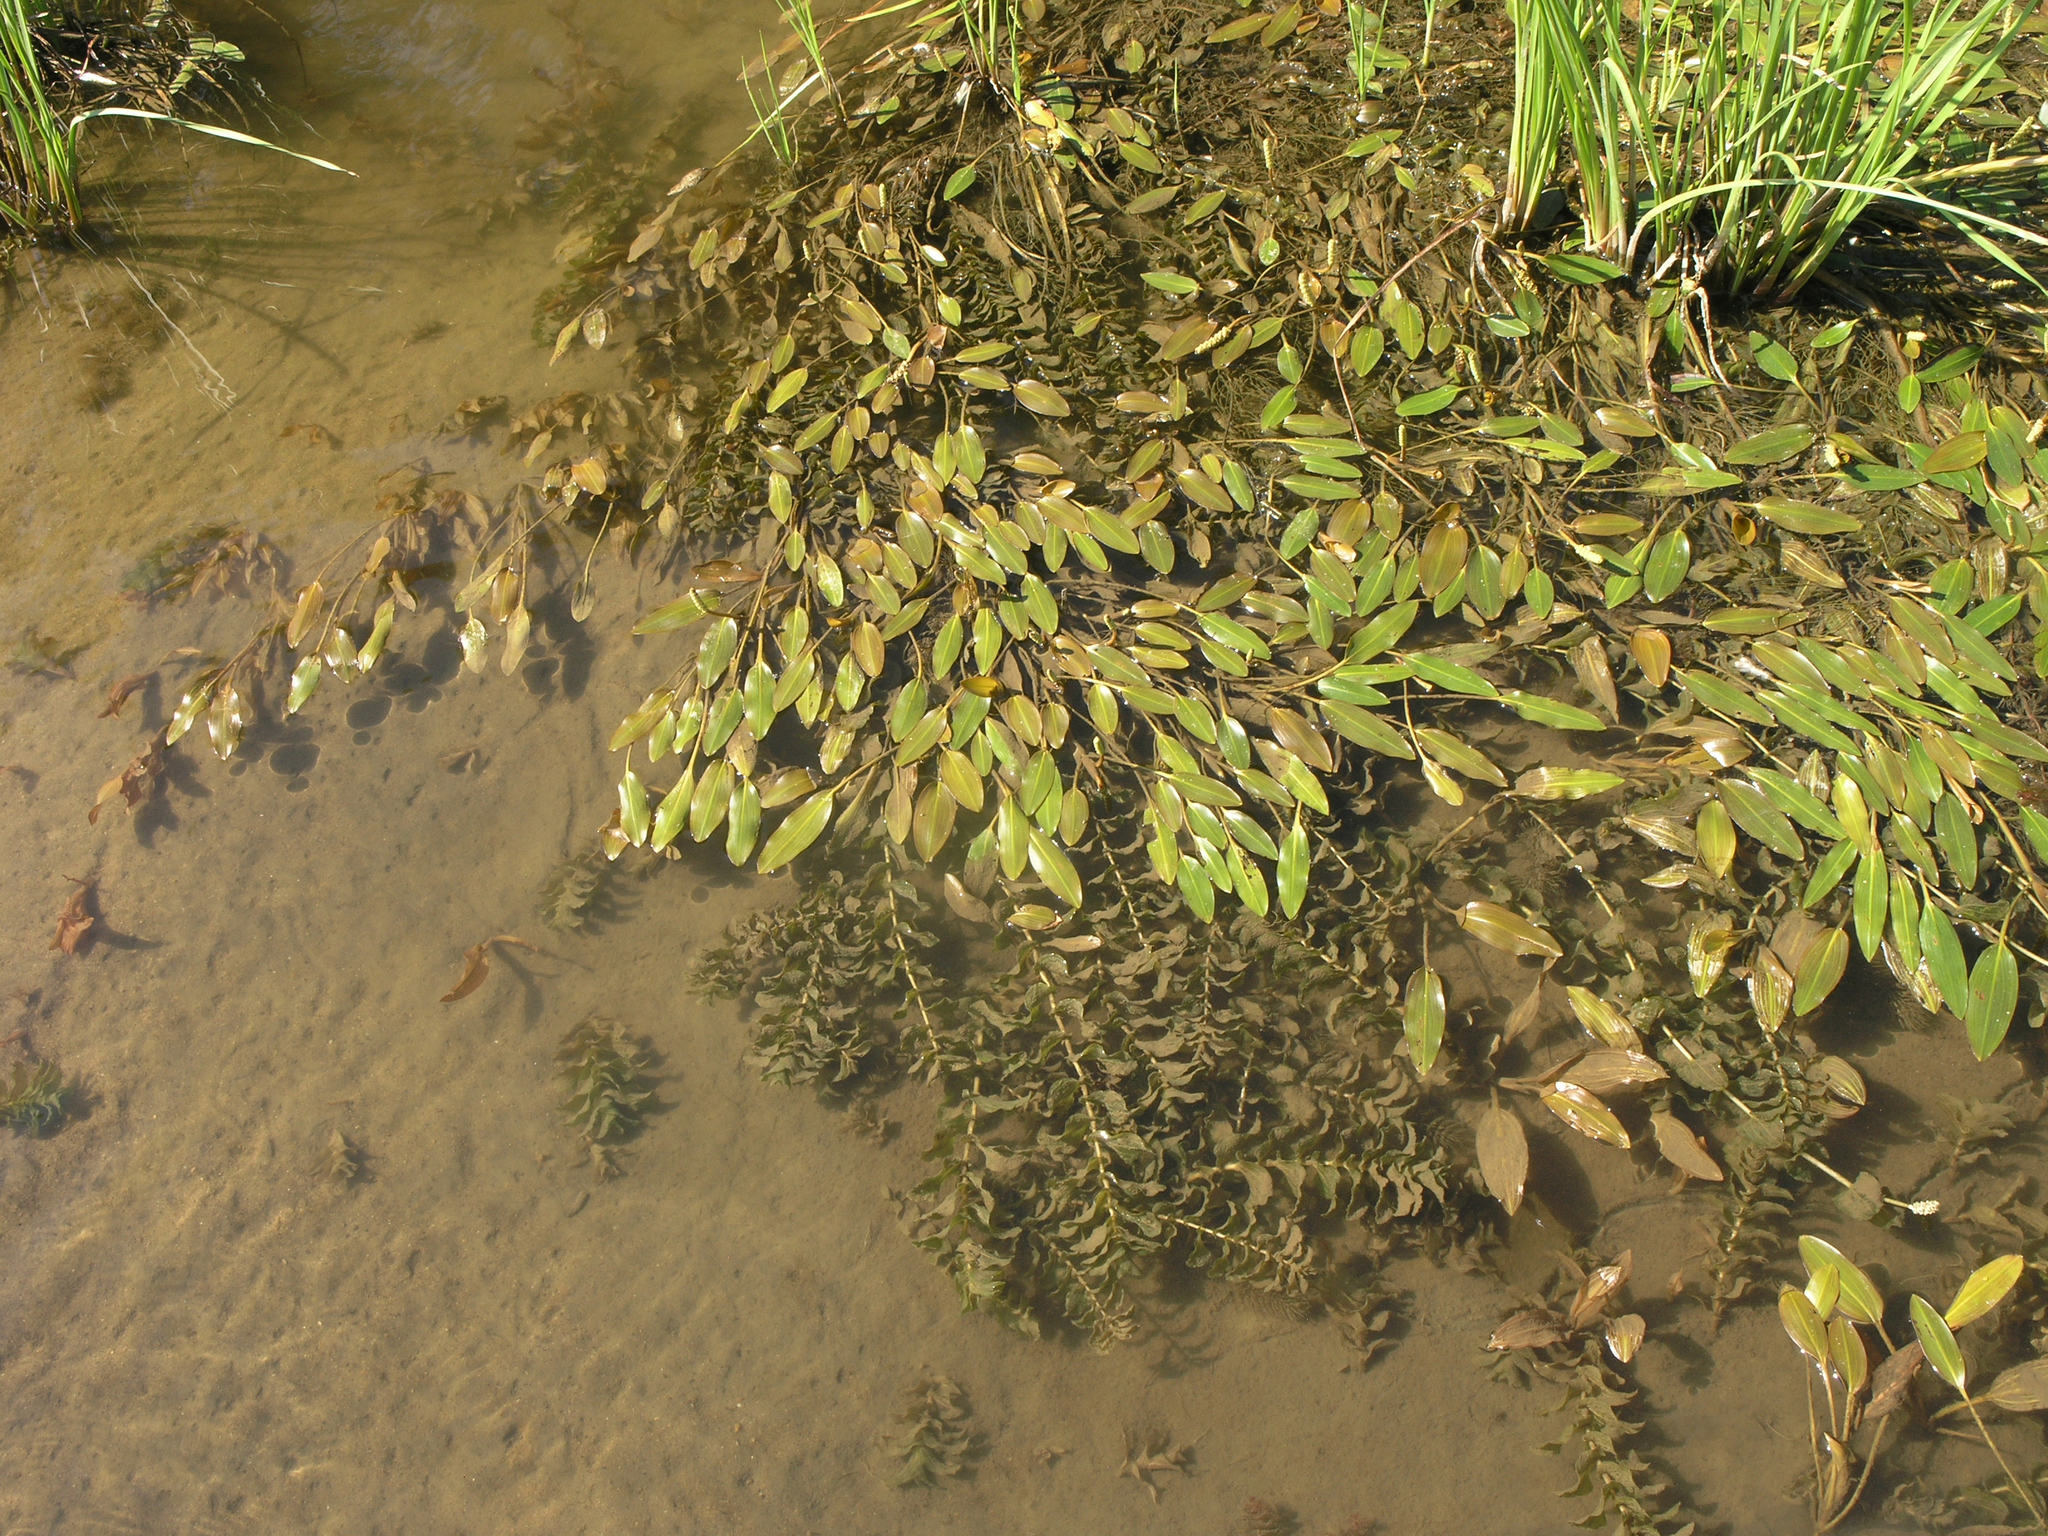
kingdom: Plantae
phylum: Tracheophyta
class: Liliopsida
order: Alismatales
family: Potamogetonaceae
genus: Potamogeton
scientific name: Potamogeton perfoliatus
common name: Perfoliate pondweed
